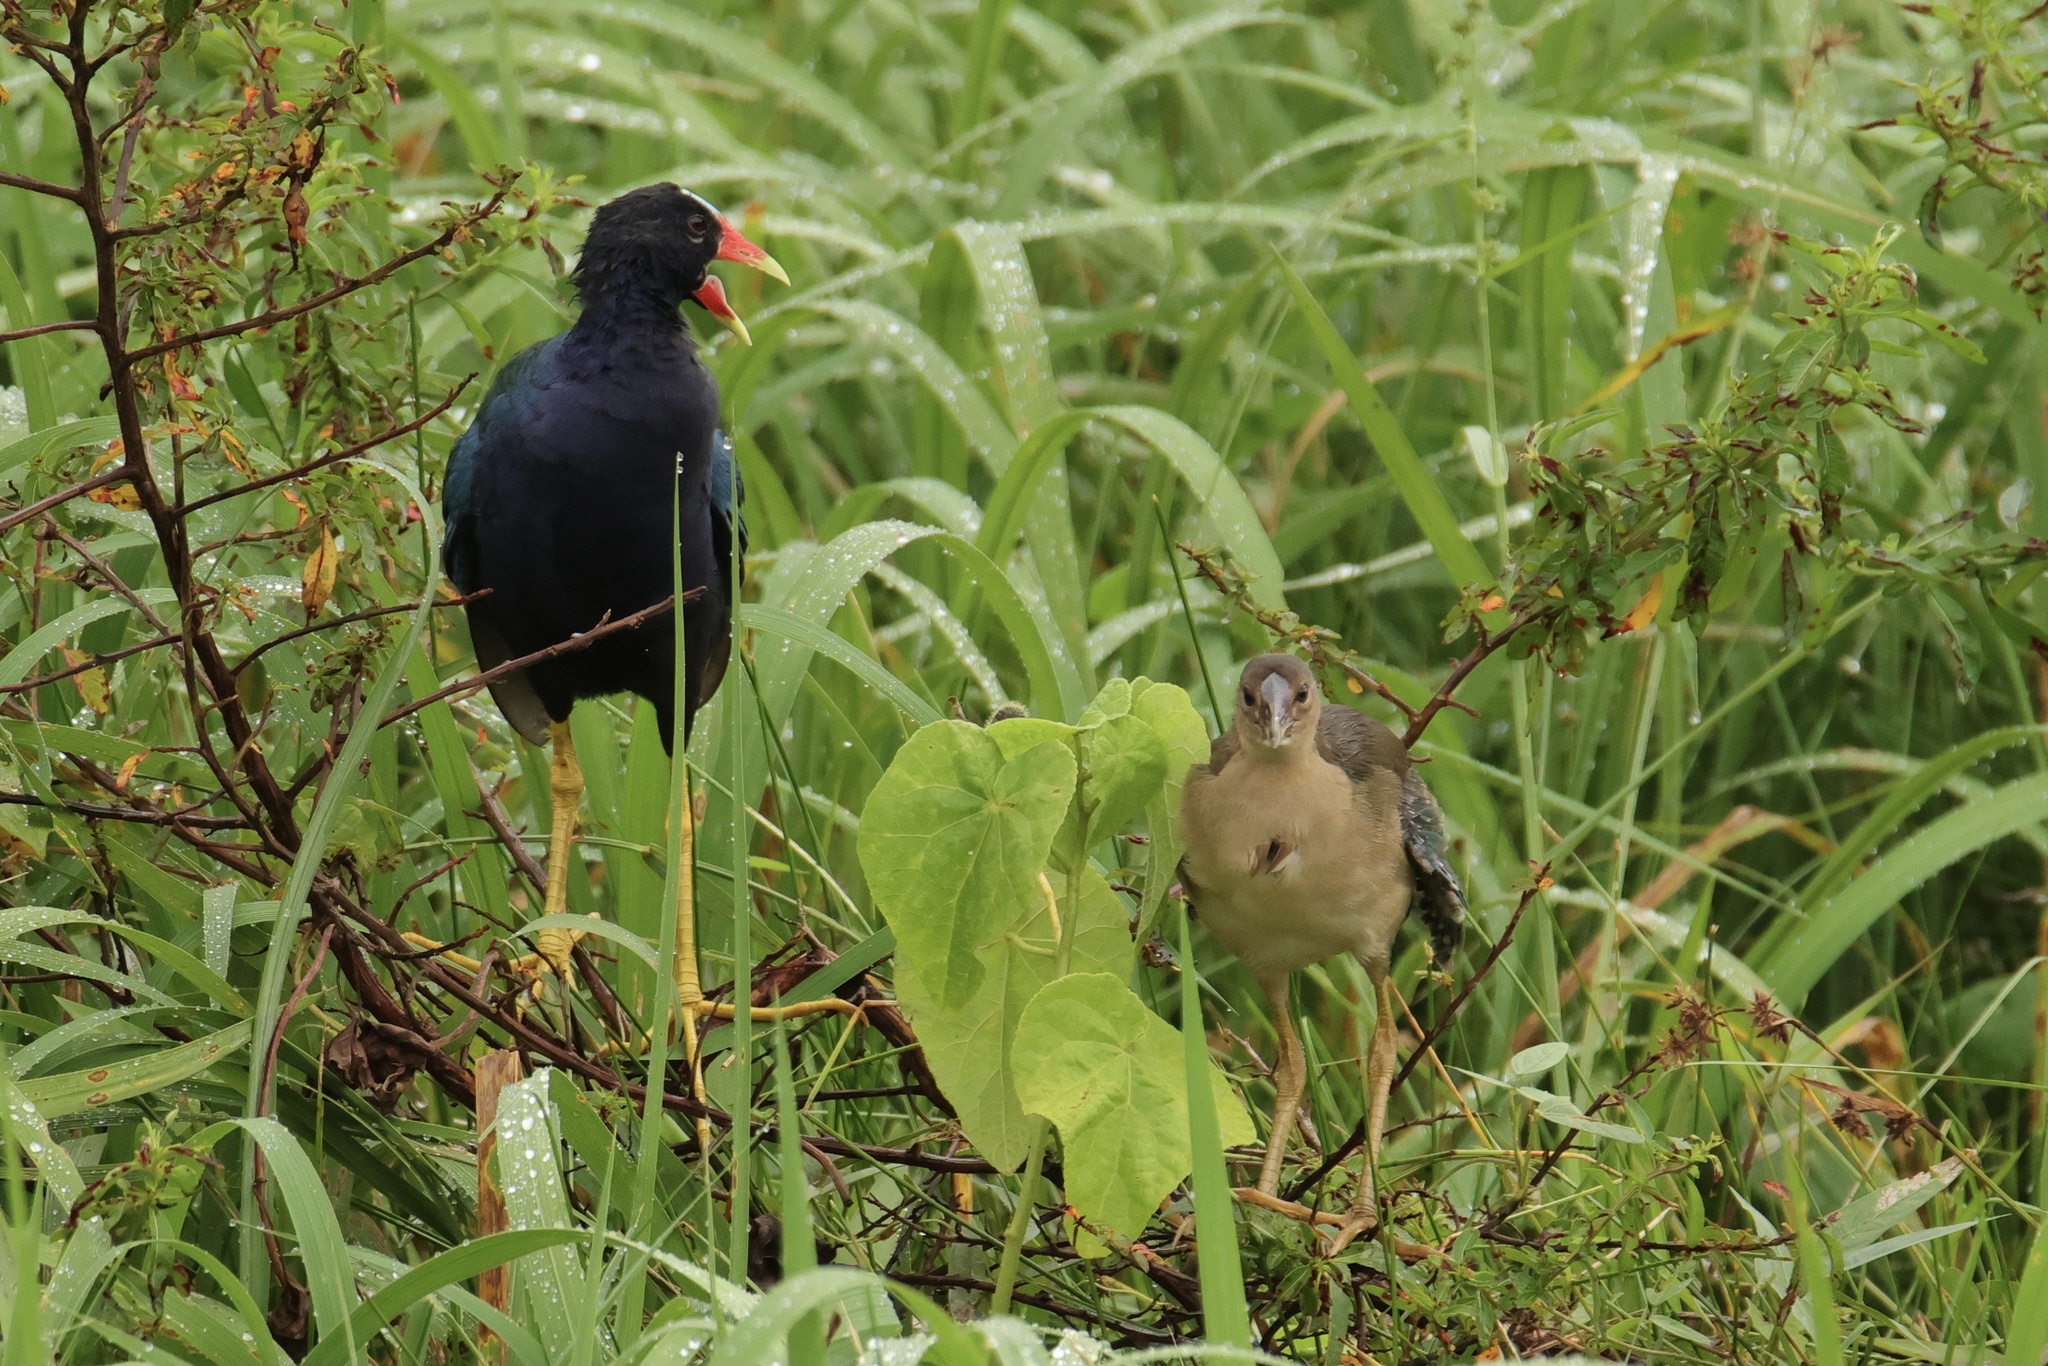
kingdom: Animalia
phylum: Chordata
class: Aves
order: Gruiformes
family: Rallidae
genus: Porphyrio
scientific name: Porphyrio martinica
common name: Purple gallinule
